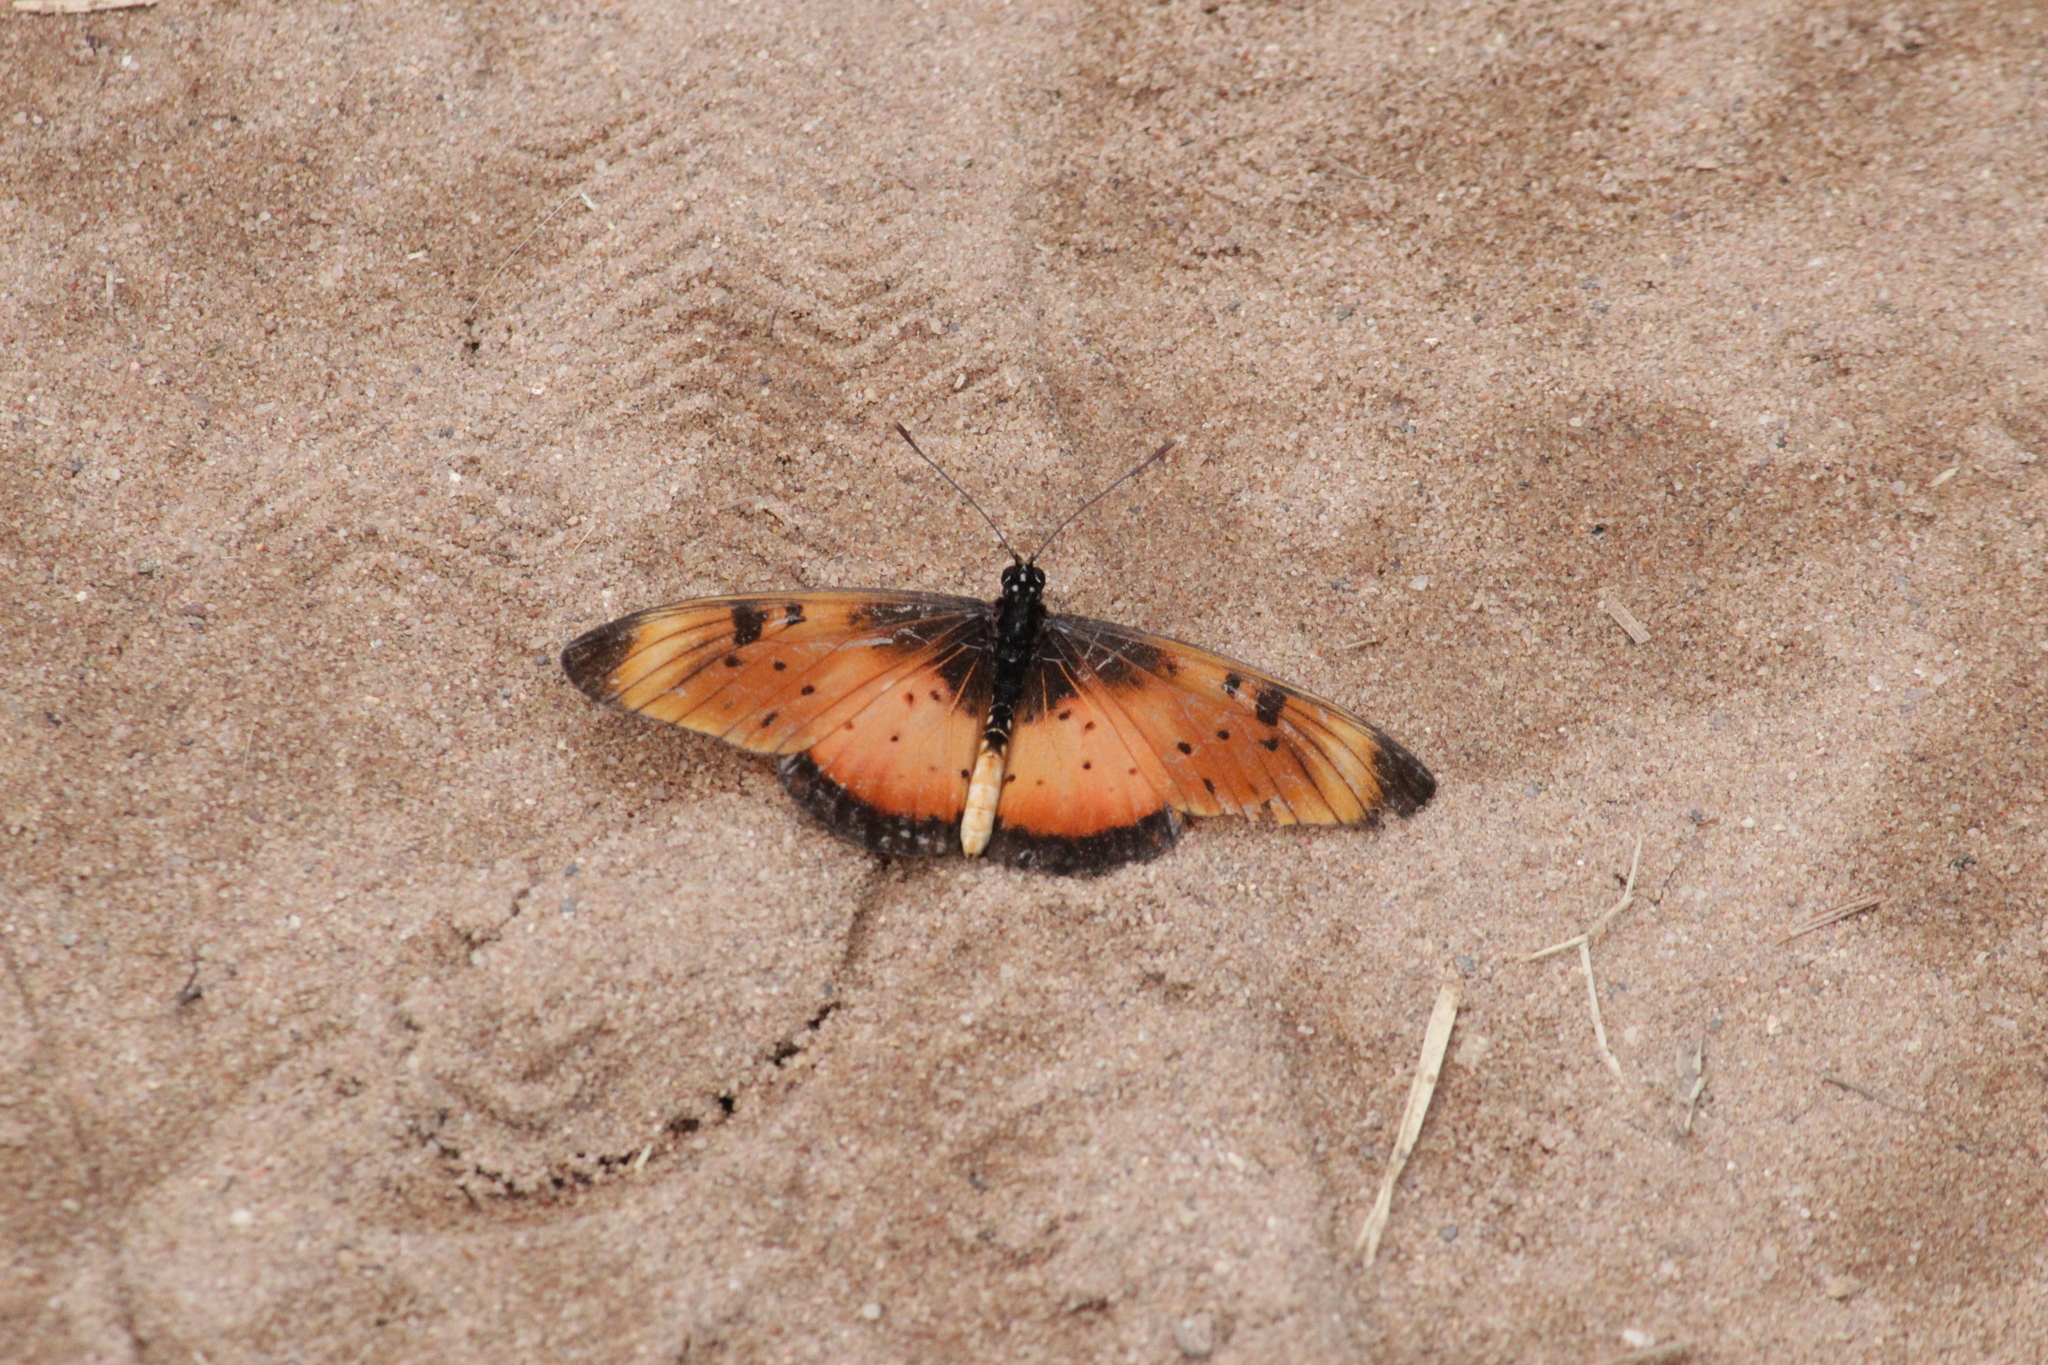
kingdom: Animalia
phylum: Arthropoda
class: Insecta
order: Lepidoptera
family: Nymphalidae
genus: Stephenia
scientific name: Stephenia
